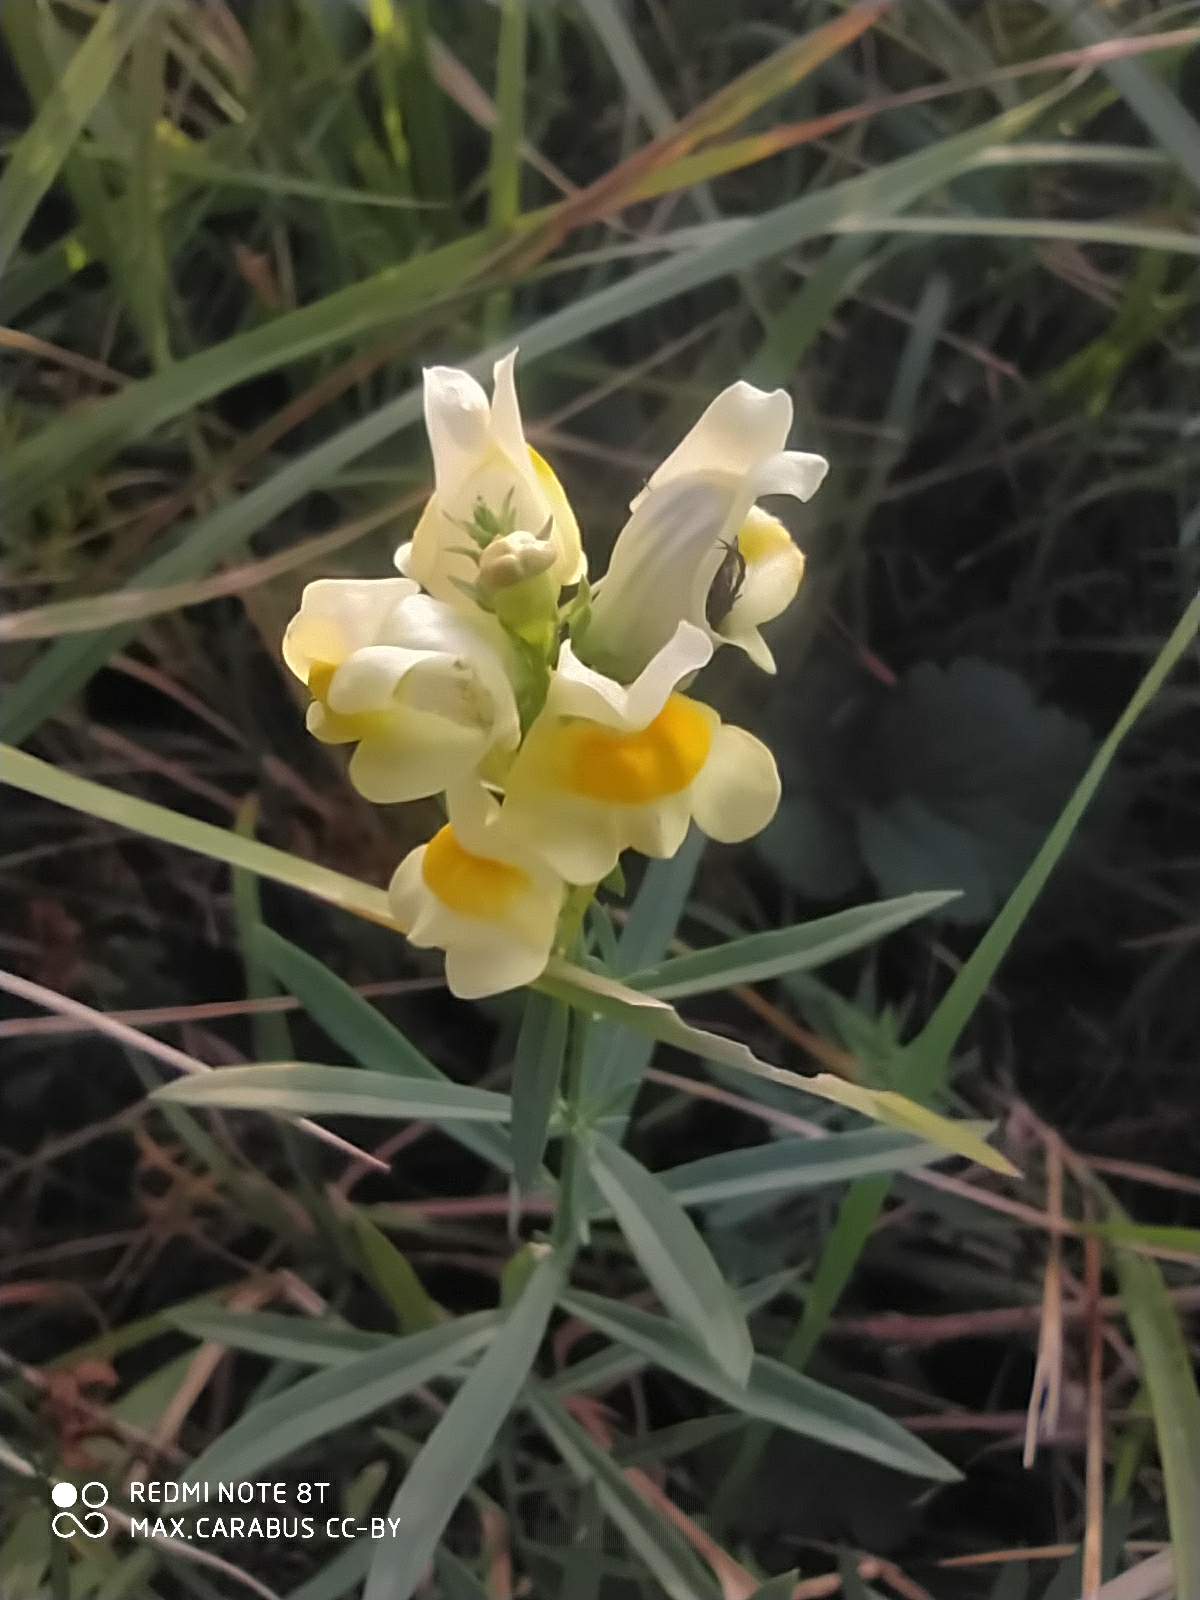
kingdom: Plantae
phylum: Tracheophyta
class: Magnoliopsida
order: Lamiales
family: Plantaginaceae
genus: Linaria
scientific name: Linaria vulgaris
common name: Butter and eggs
